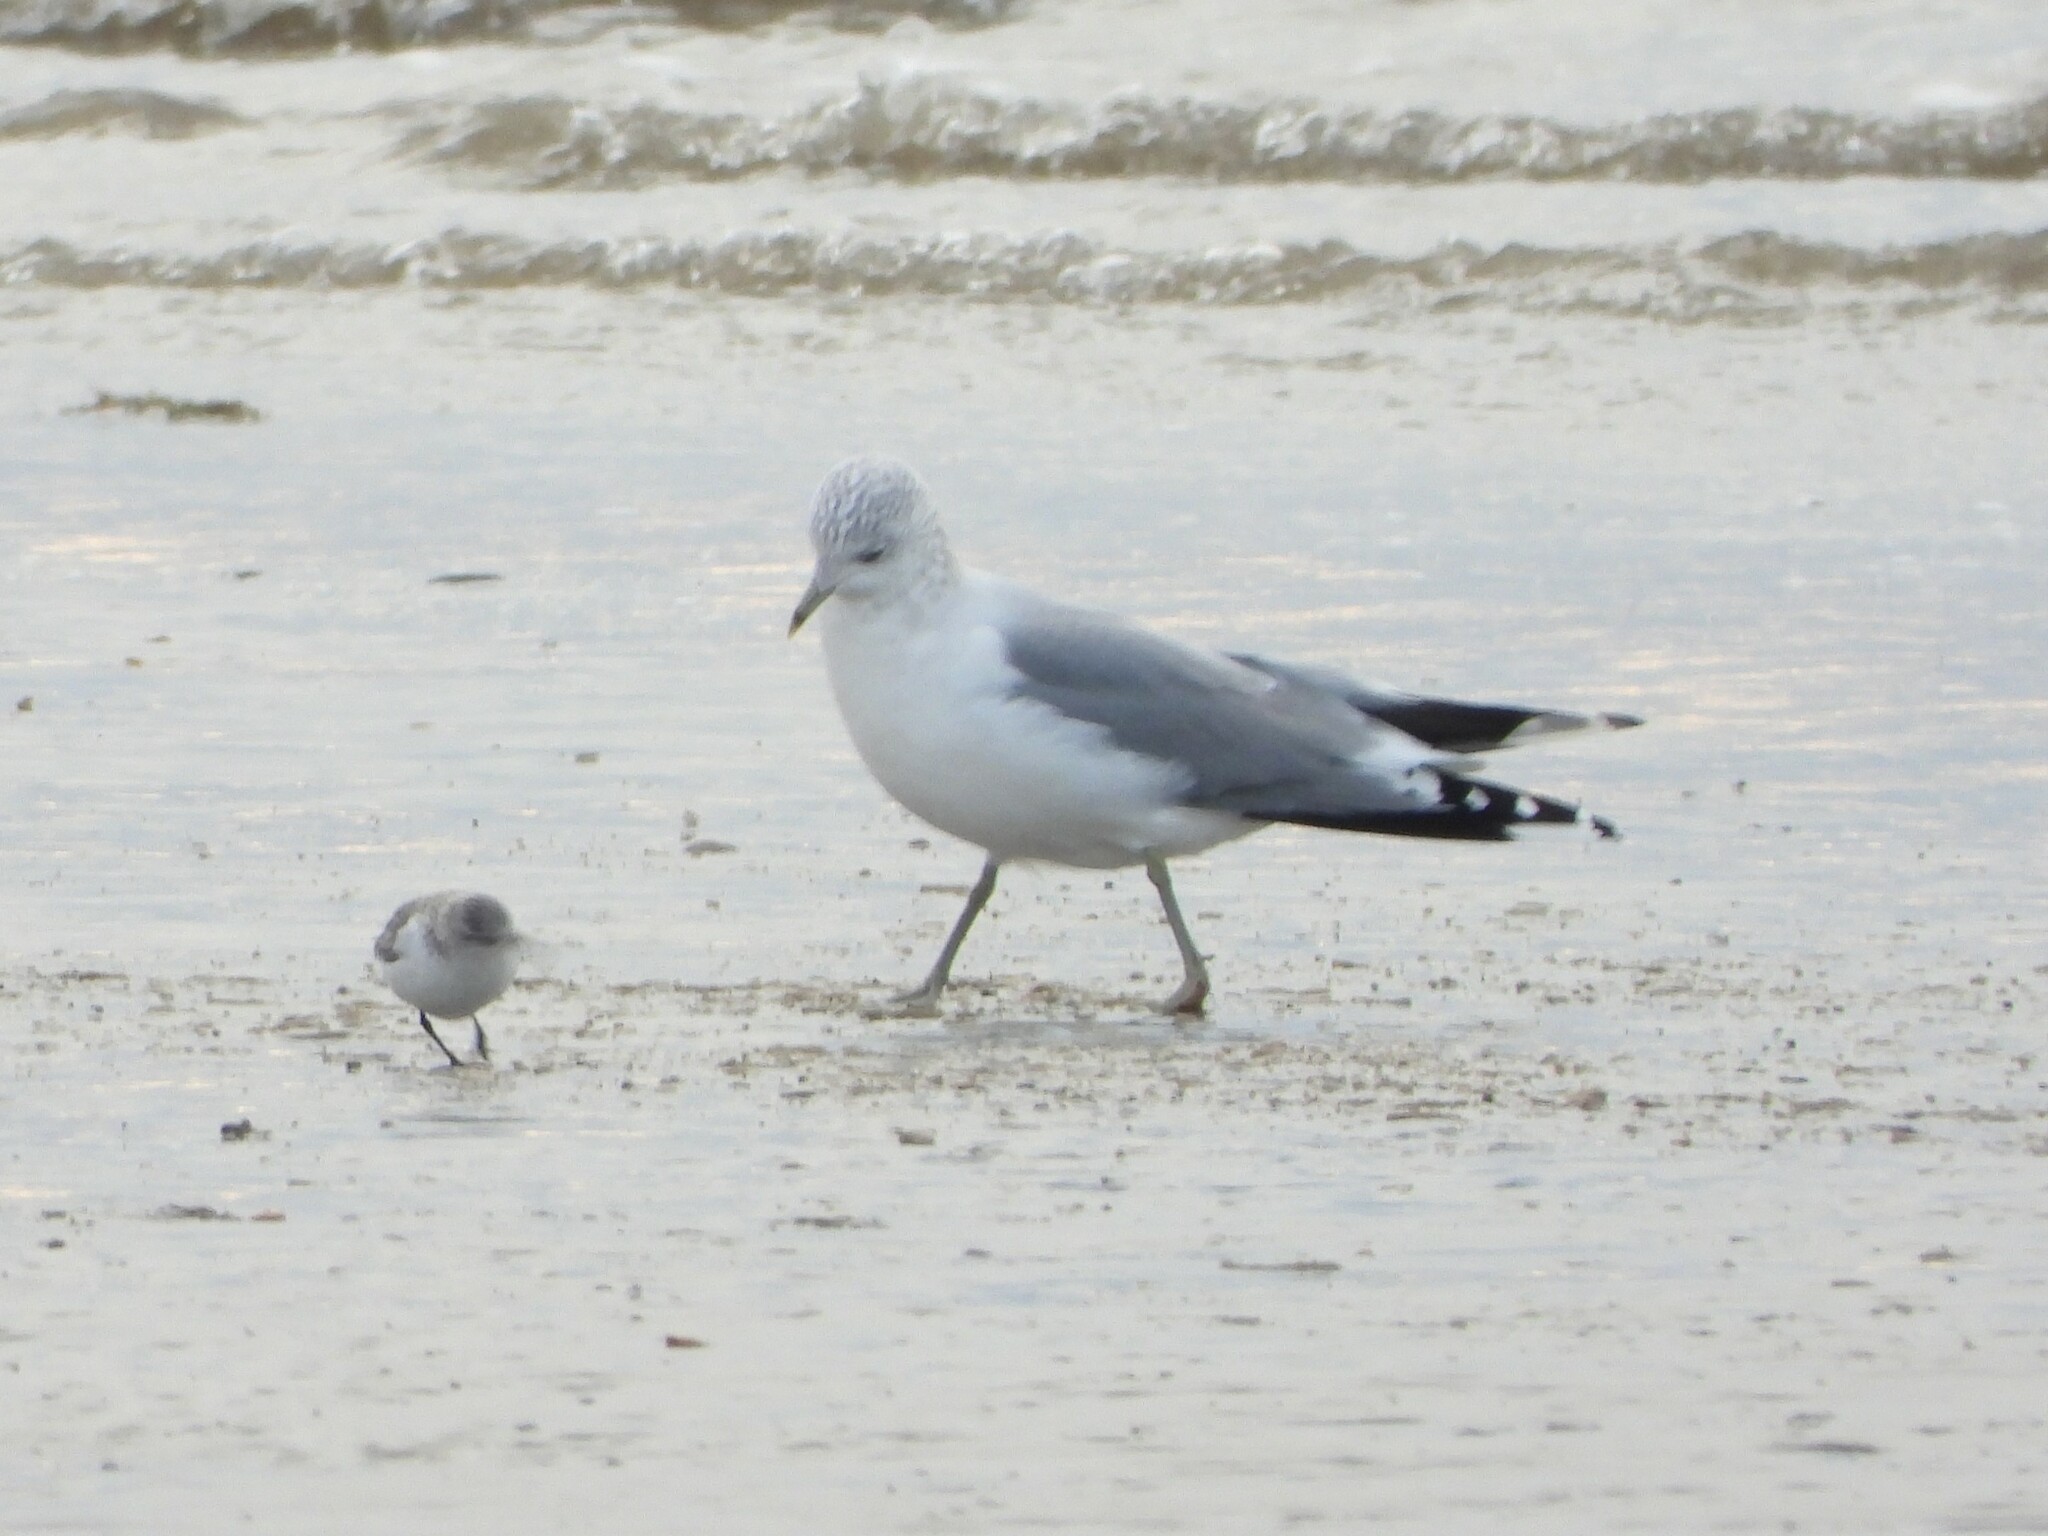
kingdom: Animalia
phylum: Chordata
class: Aves
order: Charadriiformes
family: Laridae
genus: Larus
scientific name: Larus canus
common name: Mew gull
